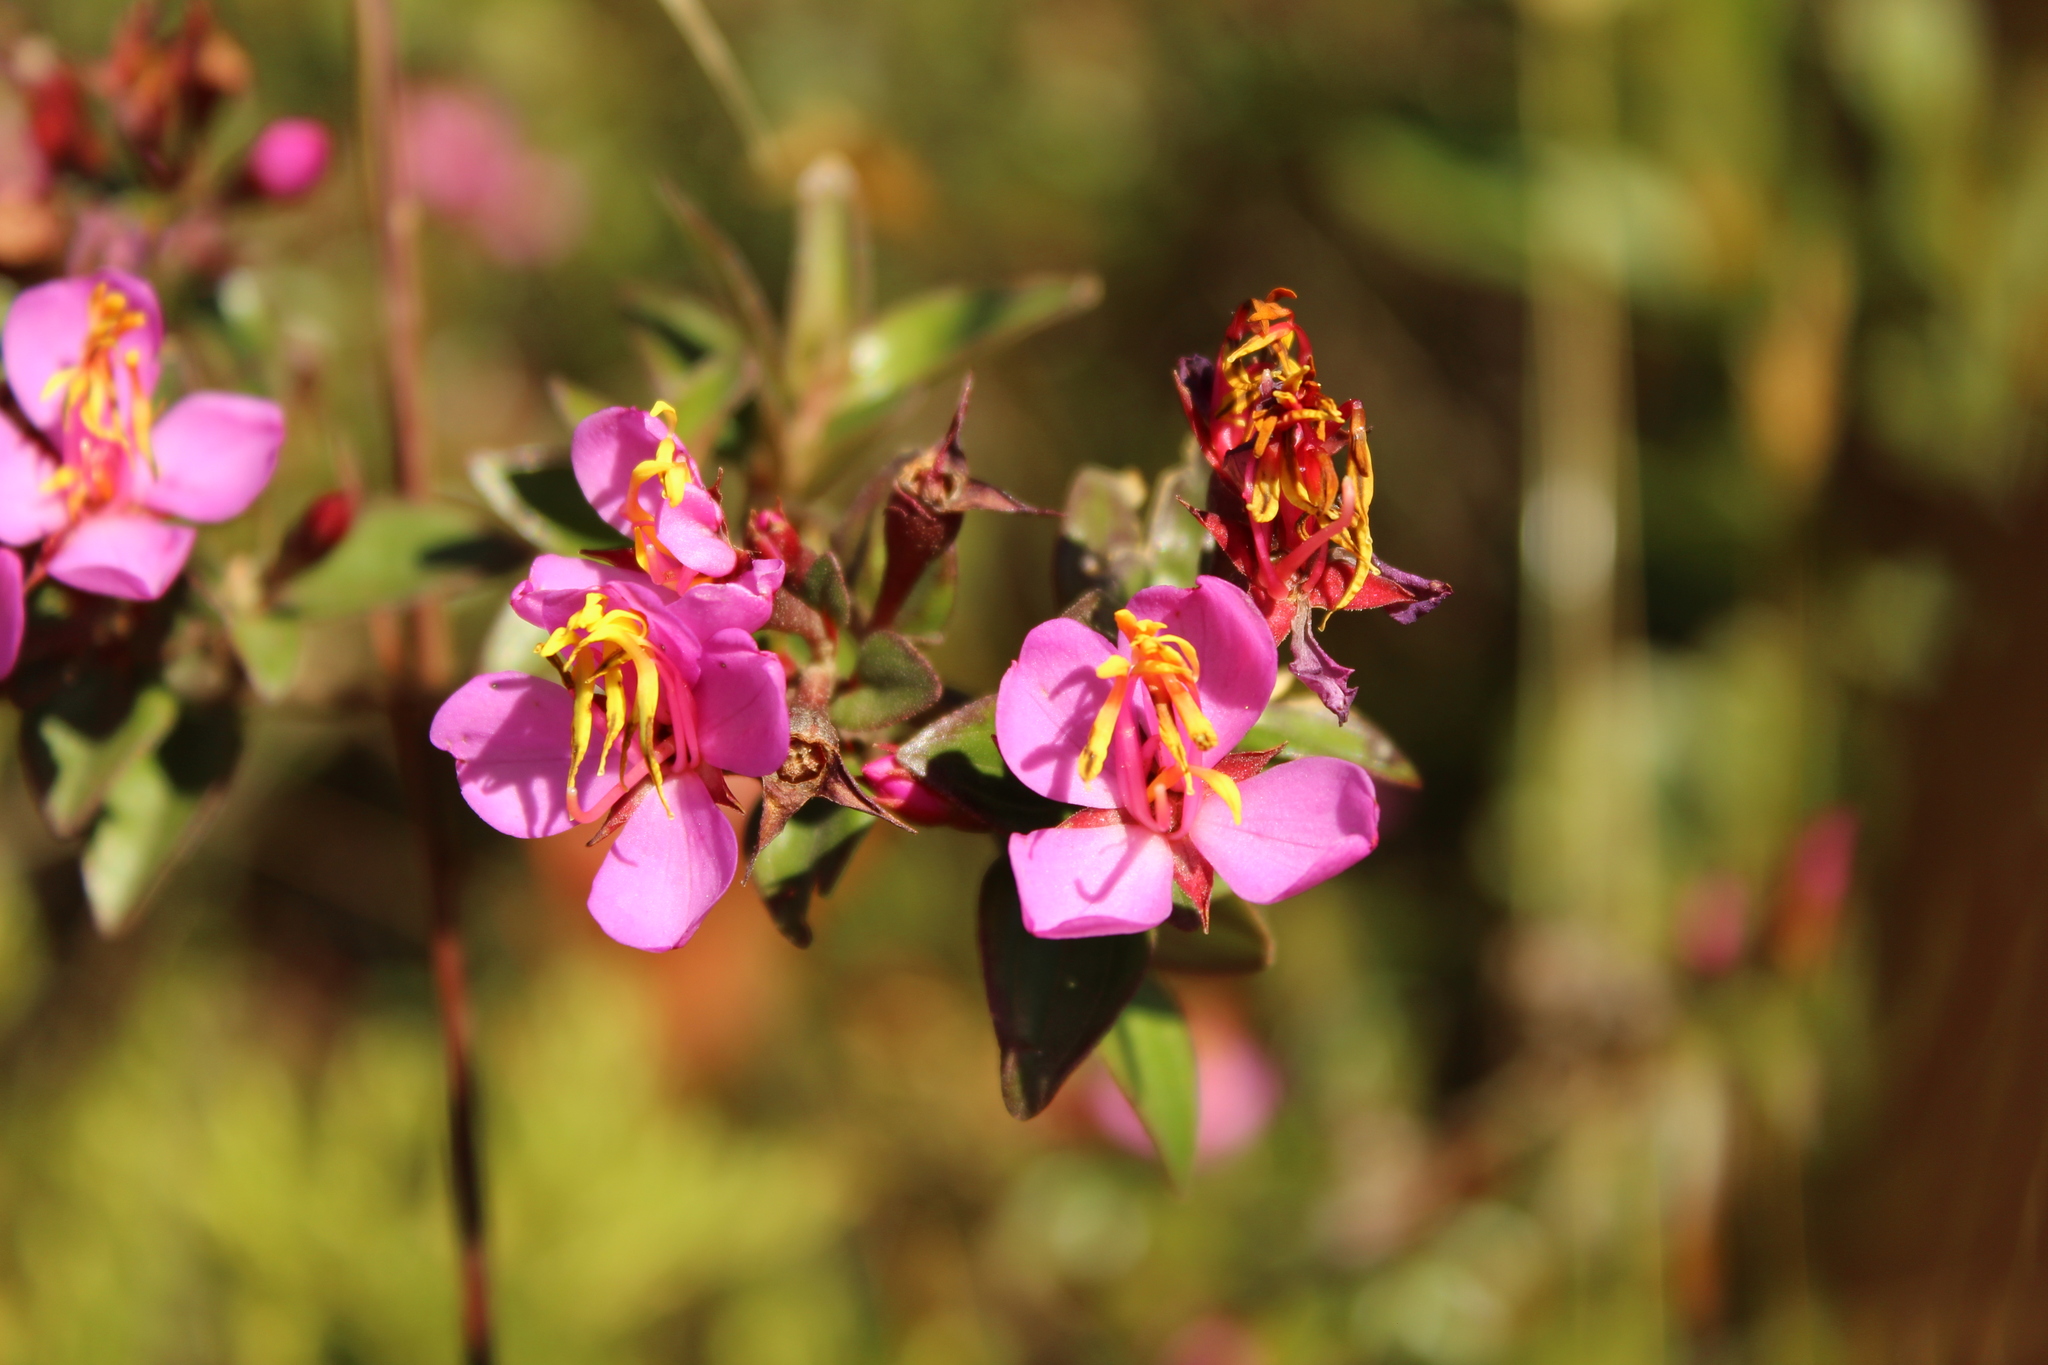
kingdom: Plantae
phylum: Tracheophyta
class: Magnoliopsida
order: Myrtales
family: Melastomataceae
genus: Monochaetum
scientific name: Monochaetum myrtoideum
